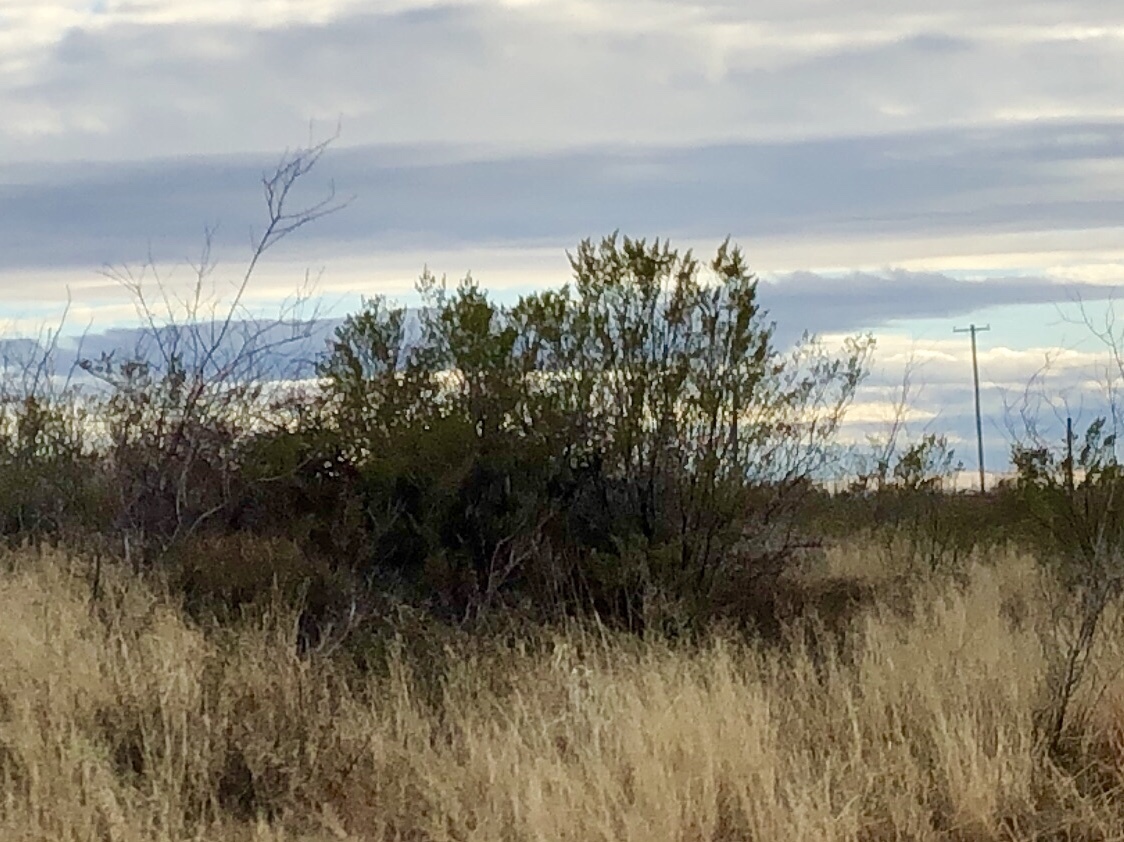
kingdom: Plantae
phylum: Tracheophyta
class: Magnoliopsida
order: Zygophyllales
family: Zygophyllaceae
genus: Larrea
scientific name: Larrea tridentata
